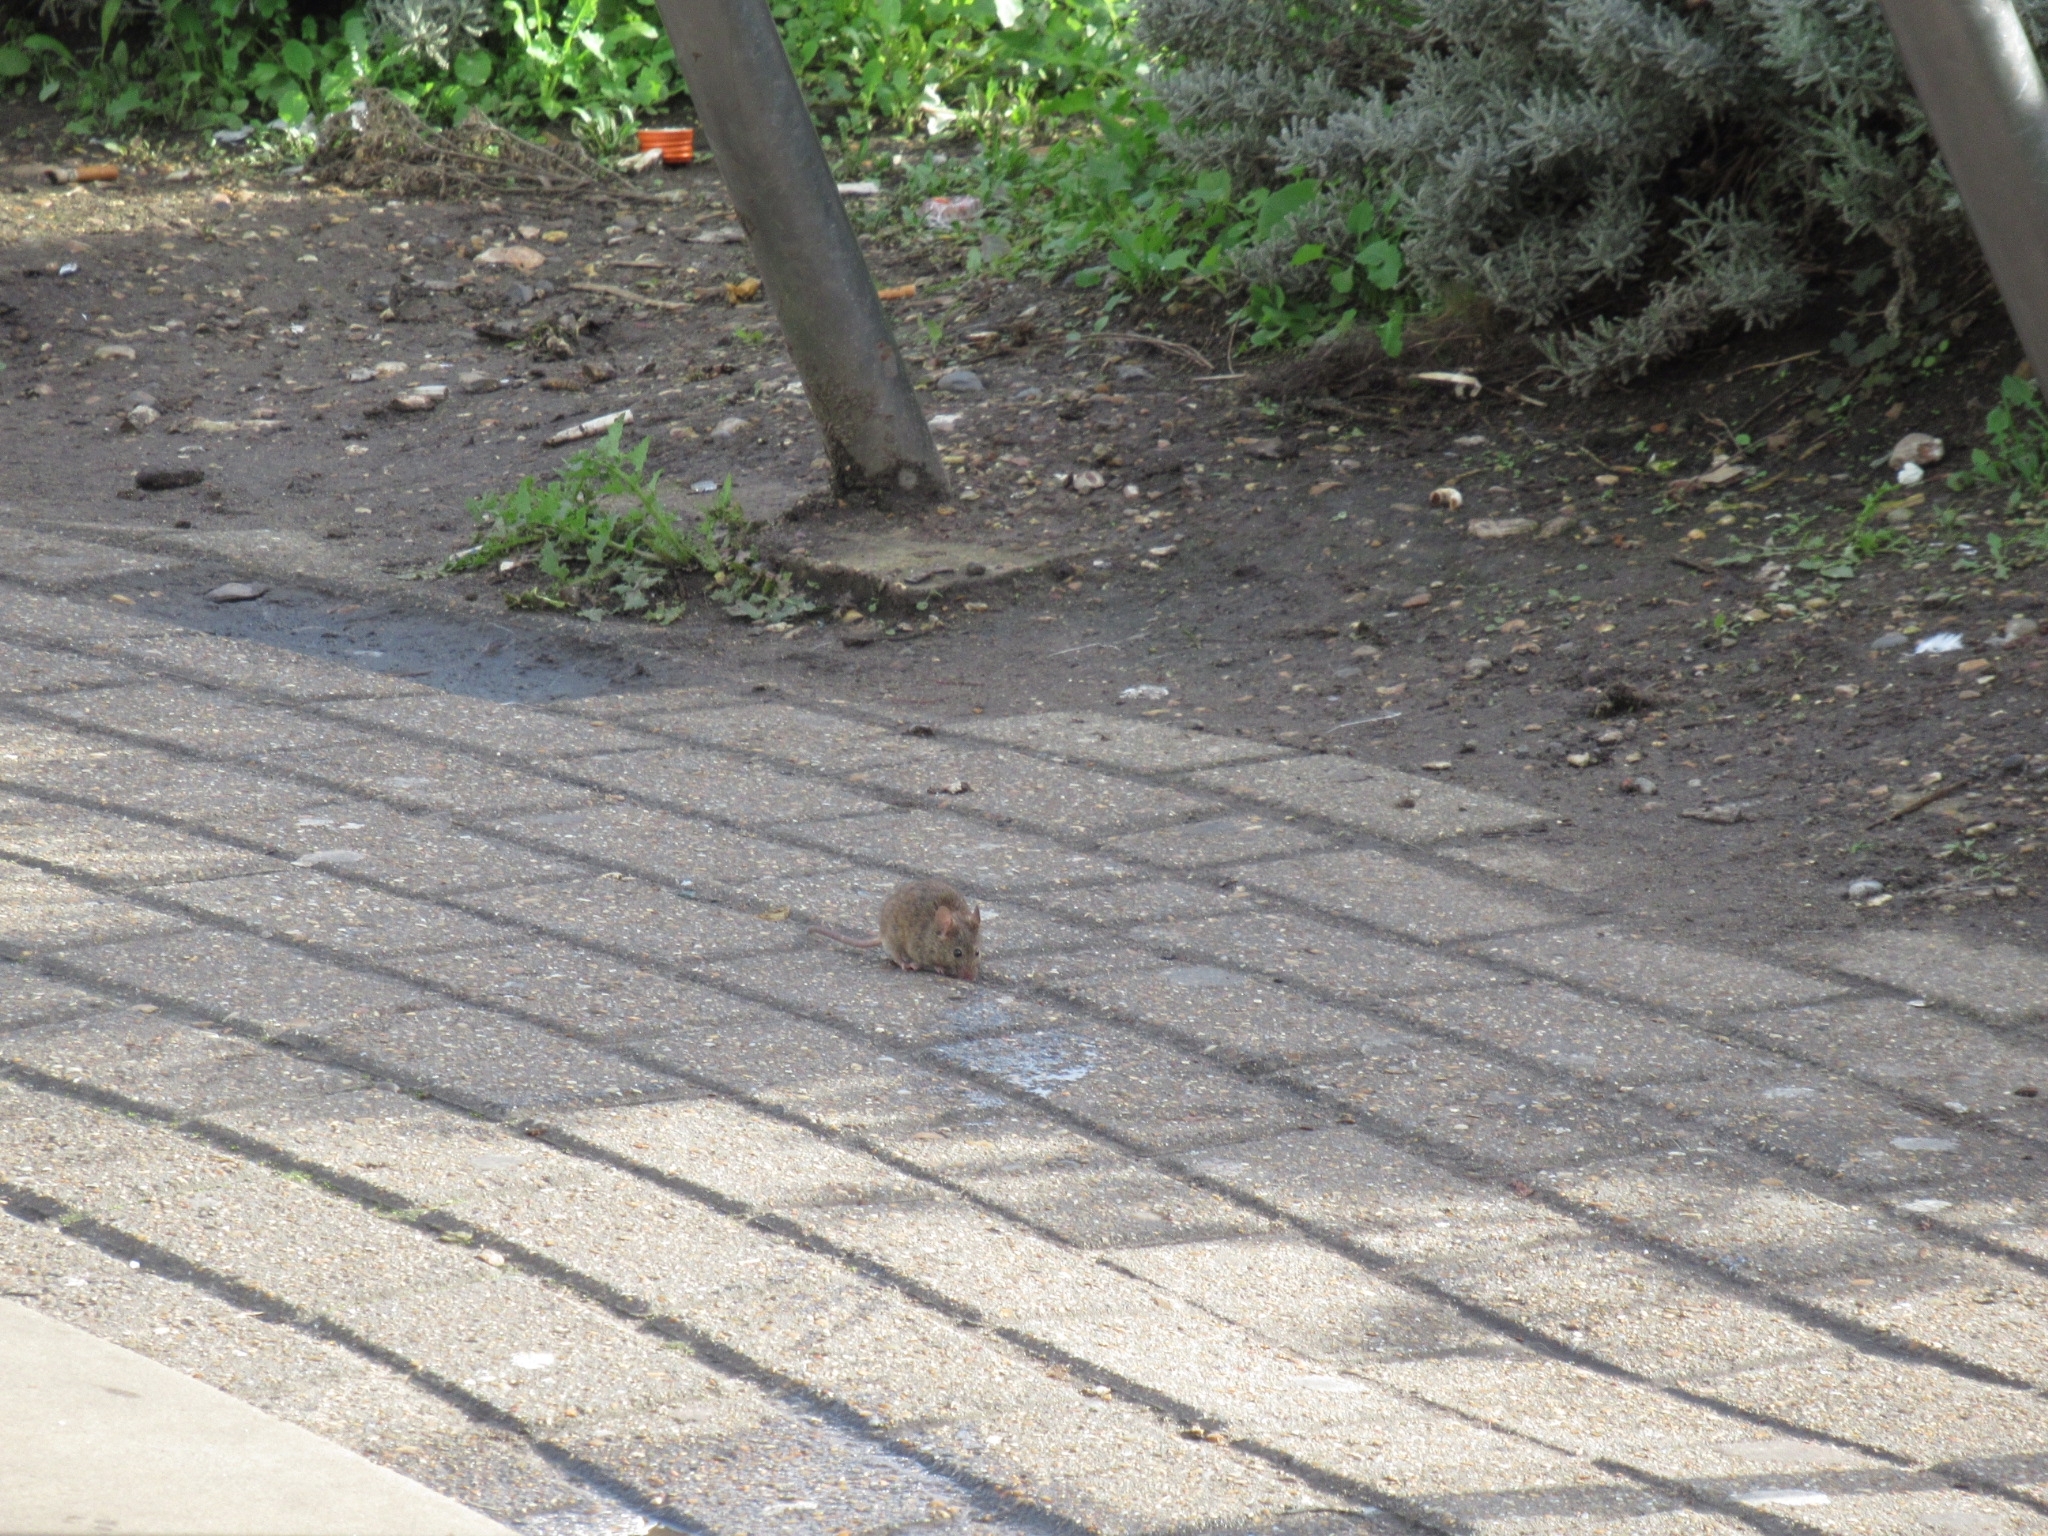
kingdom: Animalia
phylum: Chordata
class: Mammalia
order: Rodentia
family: Muridae
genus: Rattus
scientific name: Rattus norvegicus
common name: Brown rat
